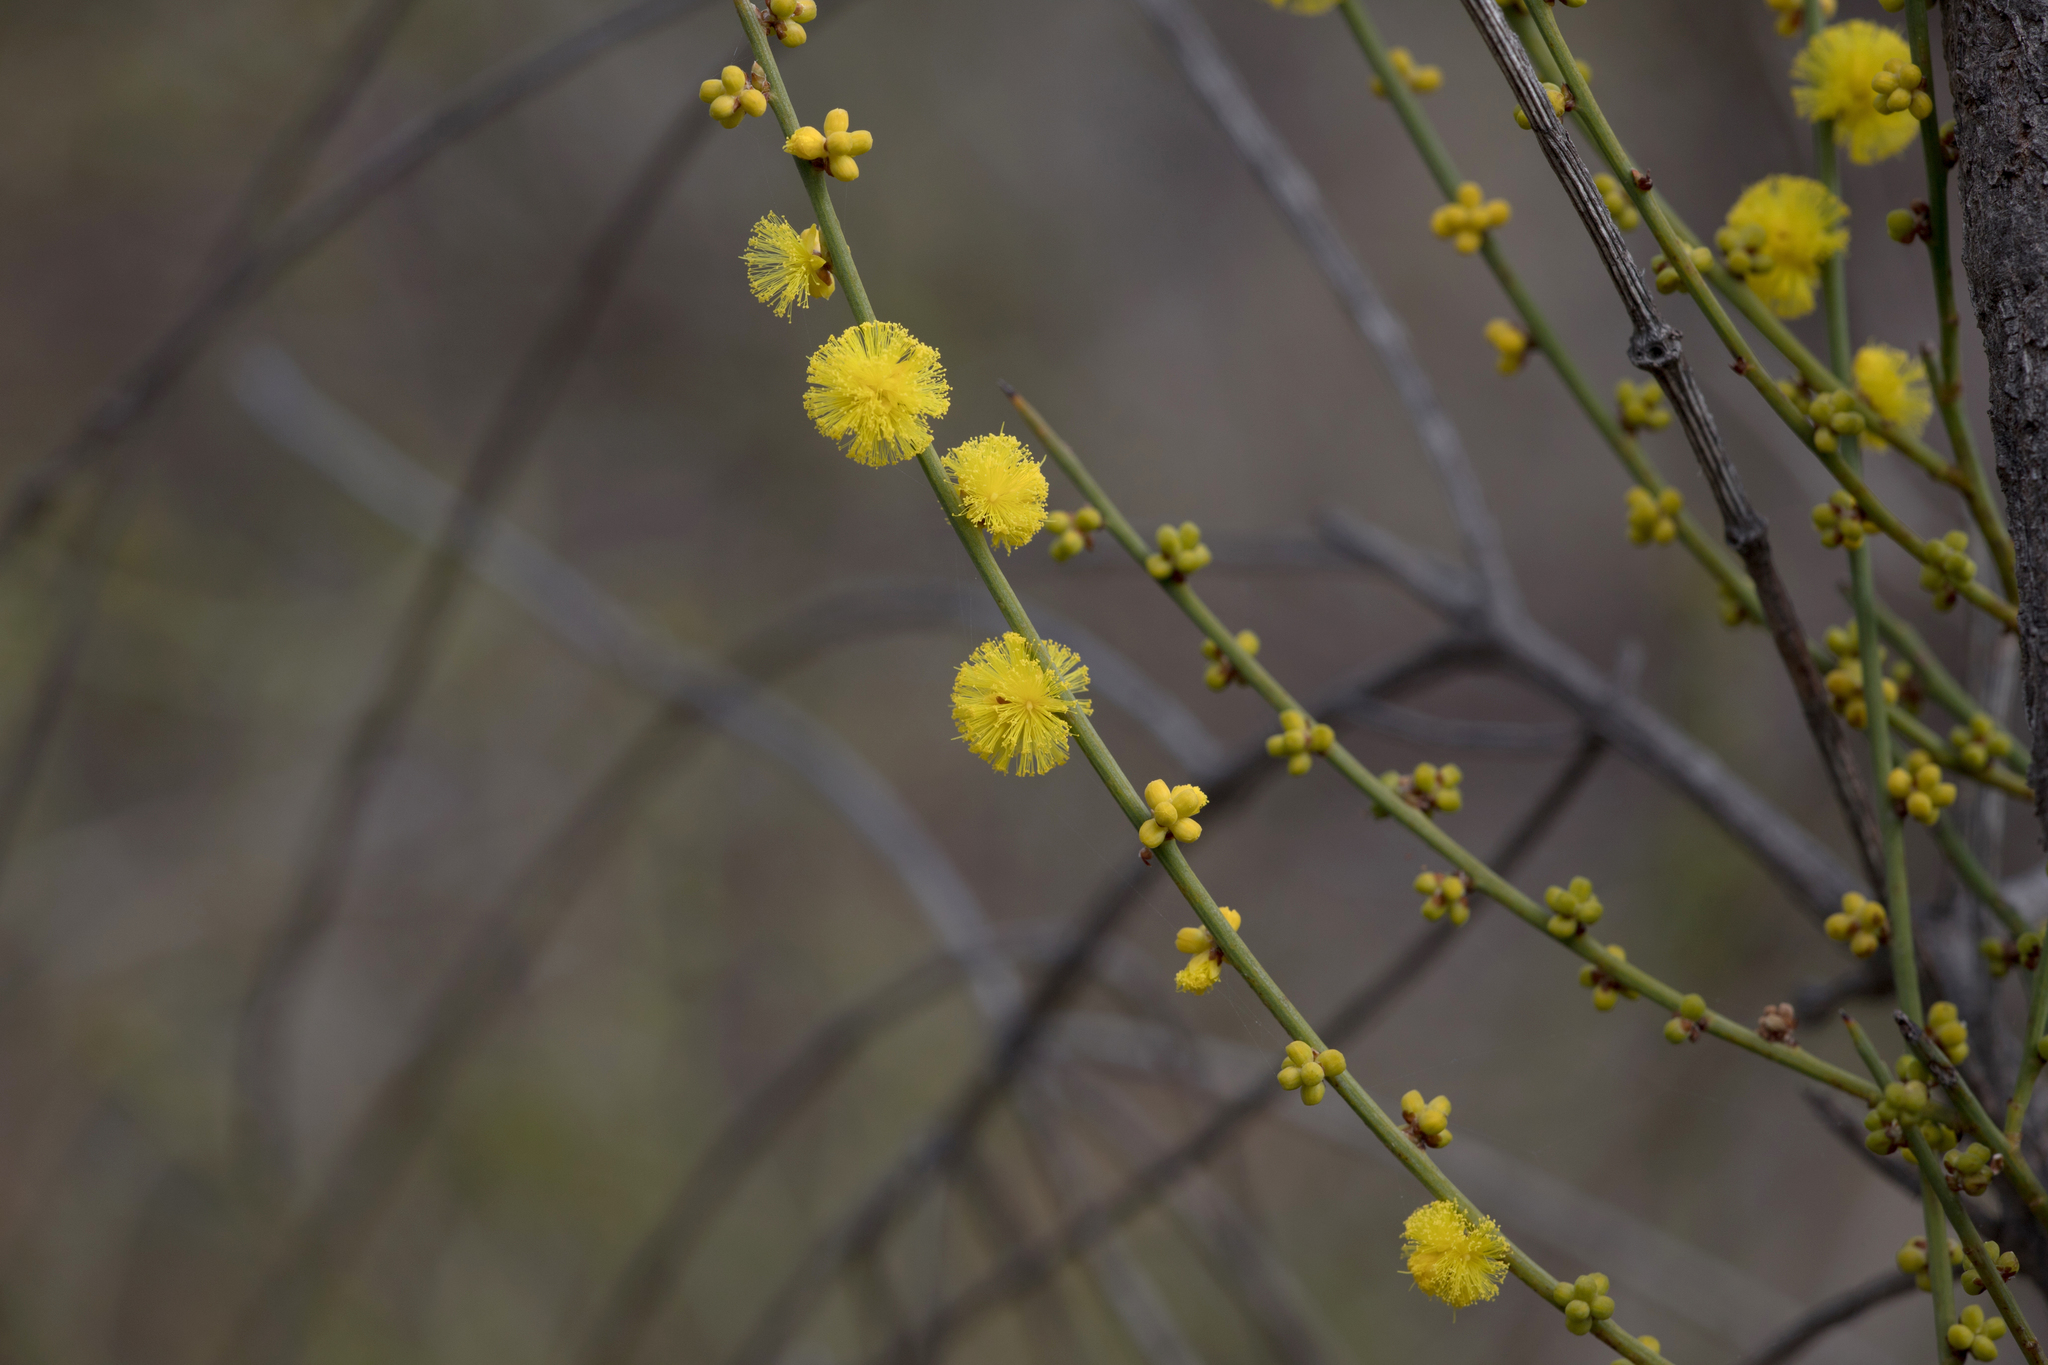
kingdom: Plantae
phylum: Tracheophyta
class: Magnoliopsida
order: Fabales
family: Fabaceae
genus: Acacia
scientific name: Acacia spinescens
